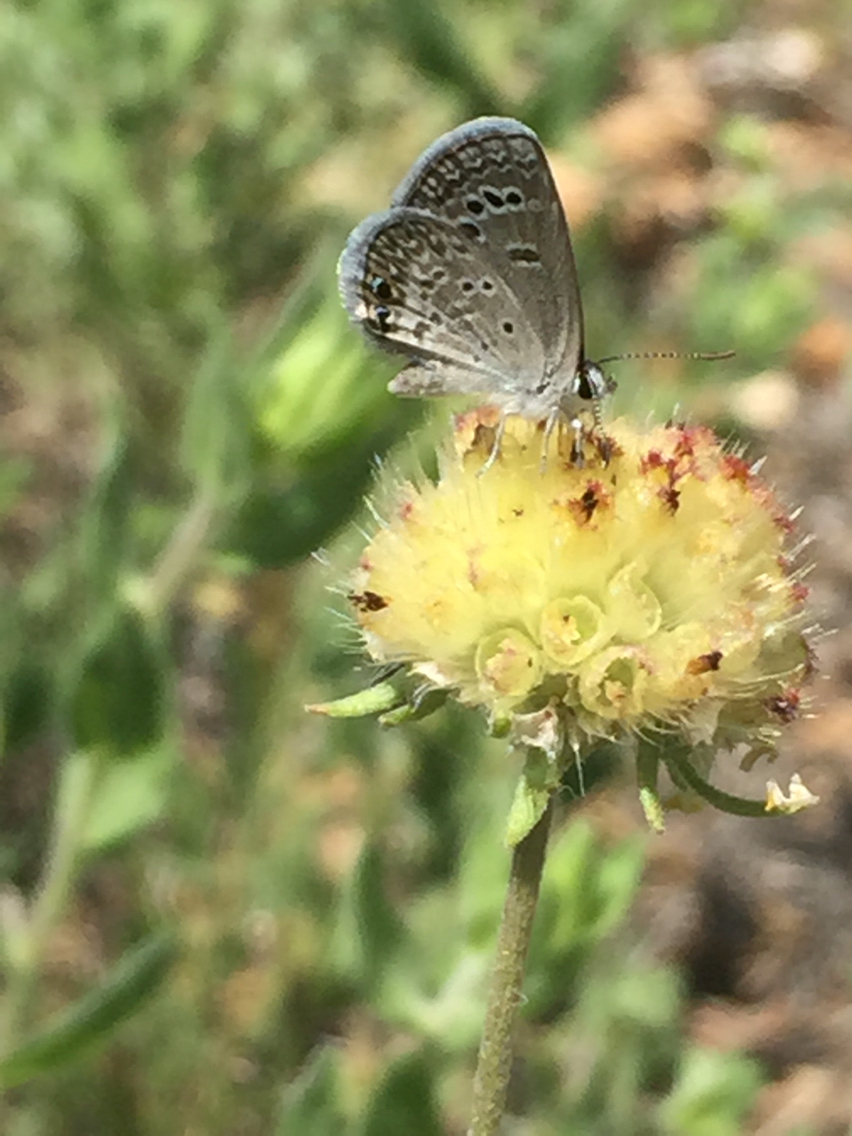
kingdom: Animalia
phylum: Arthropoda
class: Insecta
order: Lepidoptera
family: Lycaenidae
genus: Echinargus
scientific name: Echinargus isola
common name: Reakirt's blue
